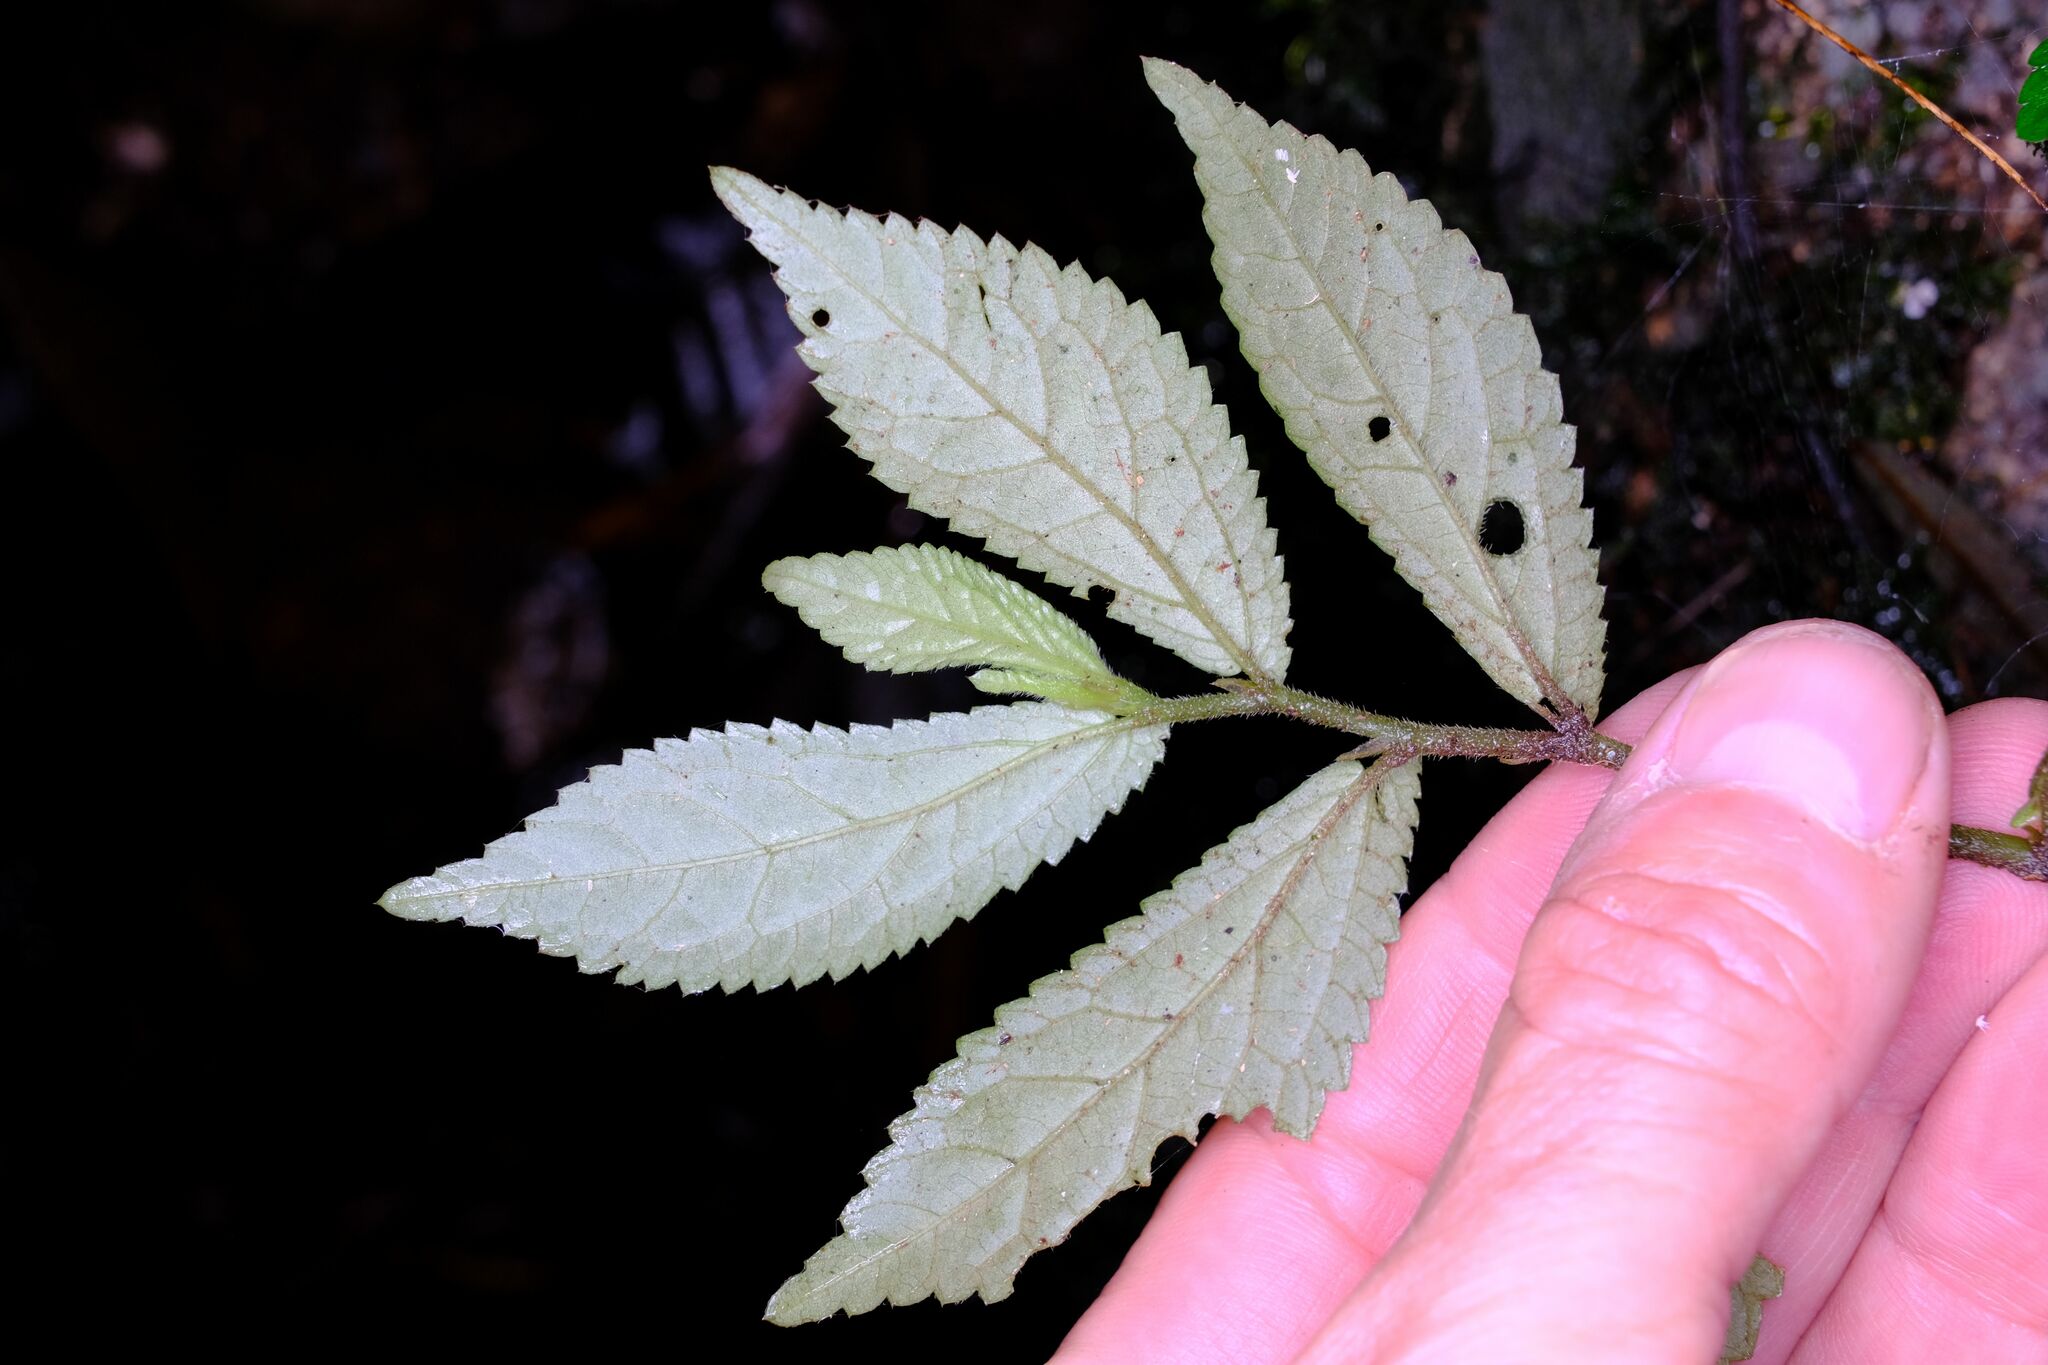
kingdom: Plantae
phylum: Tracheophyta
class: Magnoliopsida
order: Rosales
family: Urticaceae
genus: Elatostema
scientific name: Elatostema reticulatum
